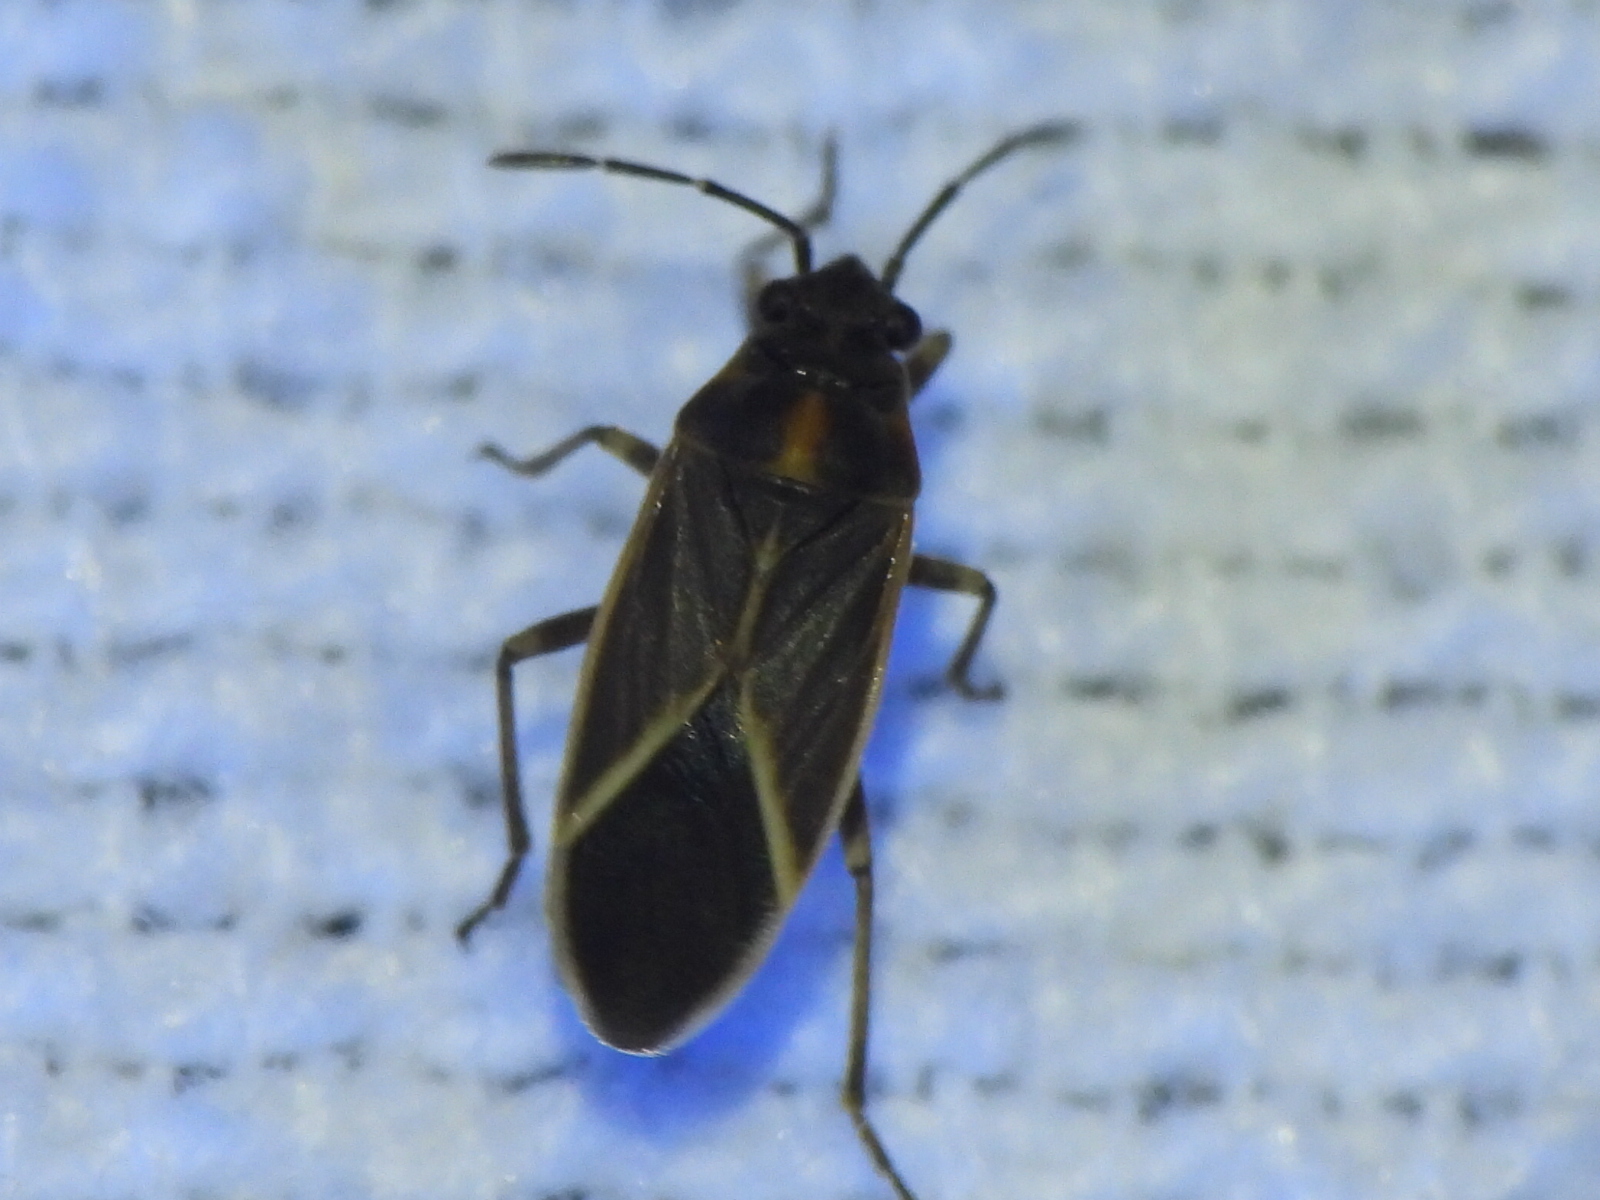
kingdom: Animalia
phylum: Arthropoda
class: Insecta
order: Hemiptera
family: Lygaeidae
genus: Ochrimnus
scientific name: Ochrimnus carnosulus
